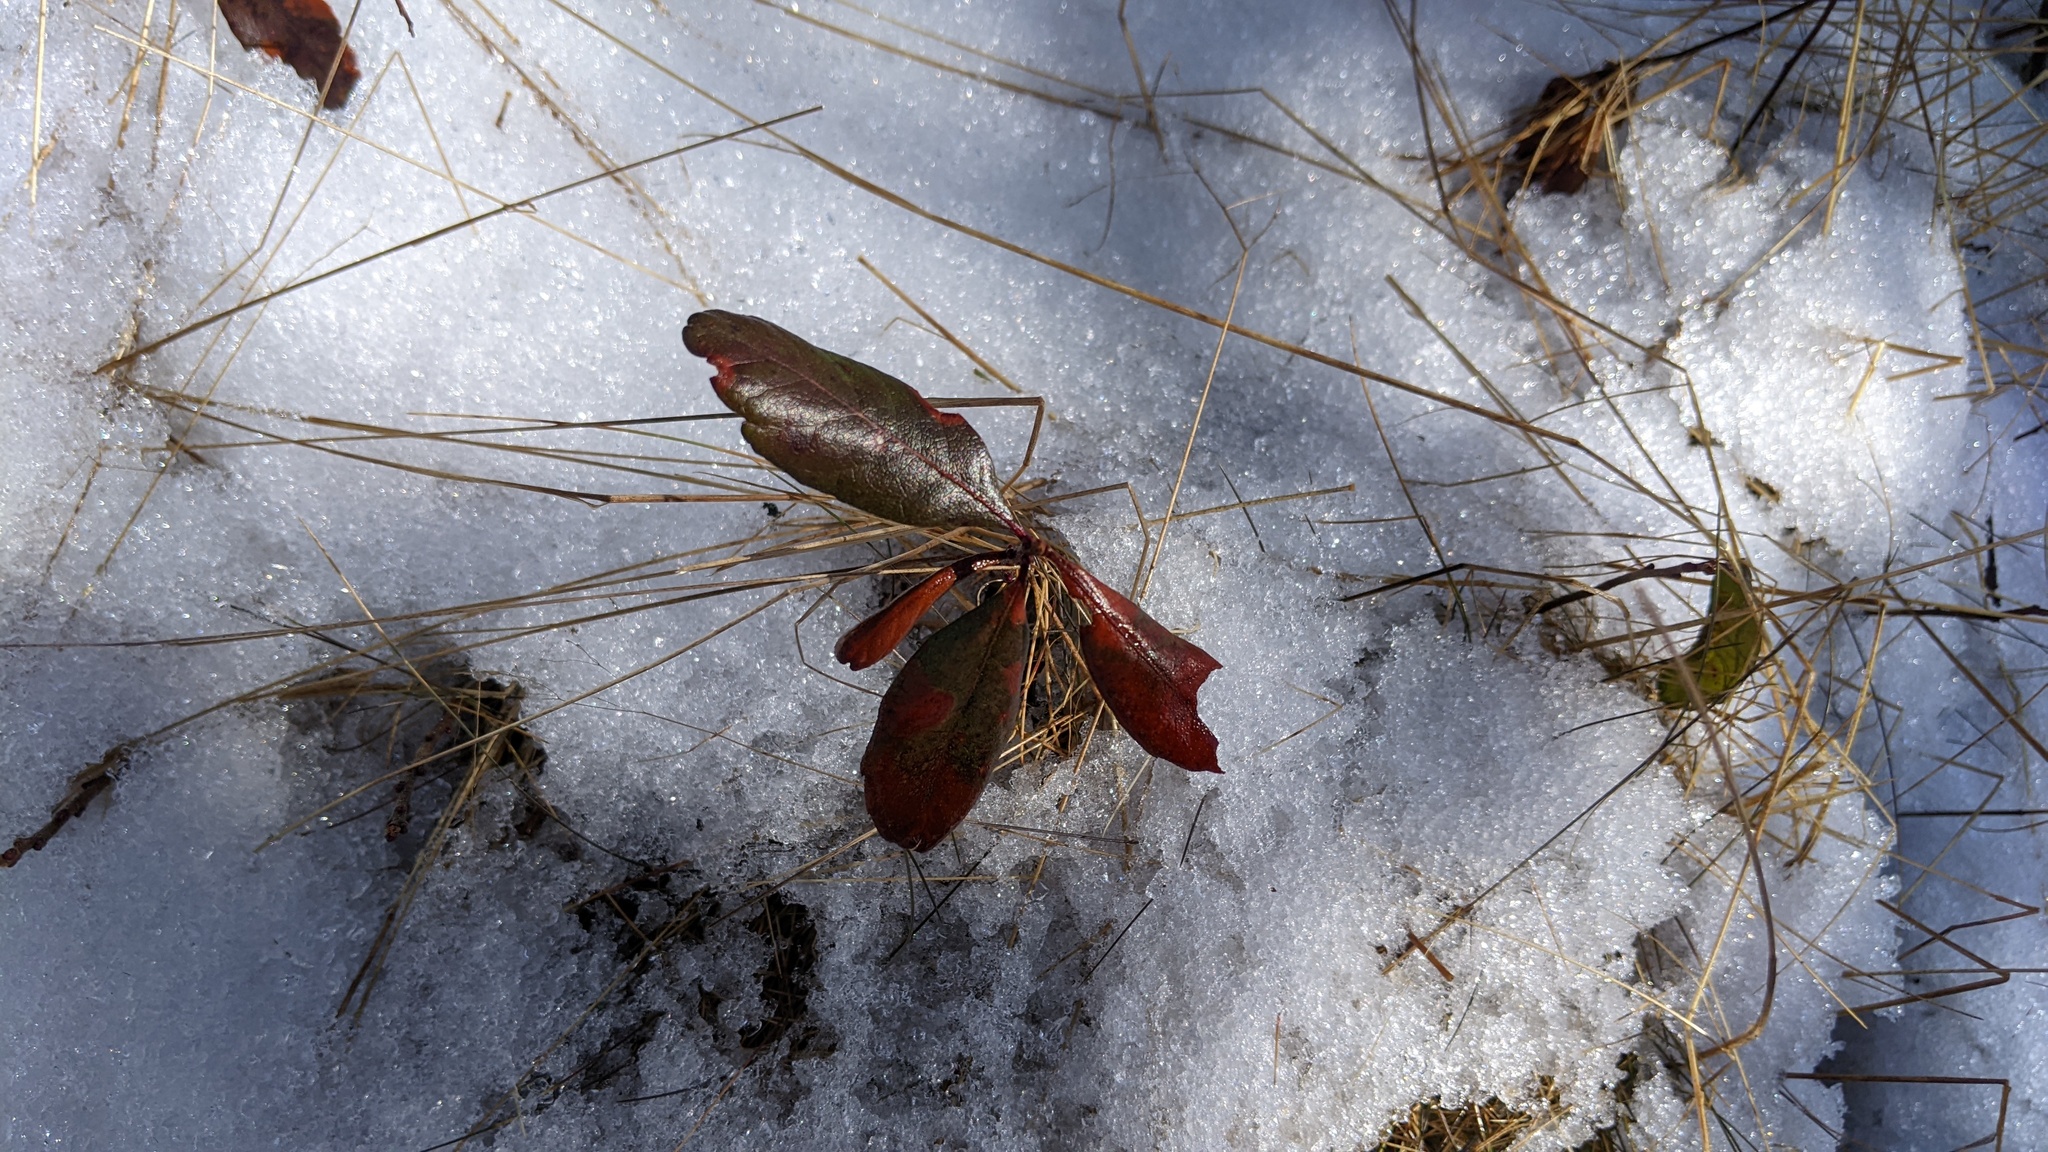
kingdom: Plantae
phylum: Tracheophyta
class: Magnoliopsida
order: Fagales
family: Myricaceae
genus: Morella
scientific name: Morella pensylvanica
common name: Northern bayberry
